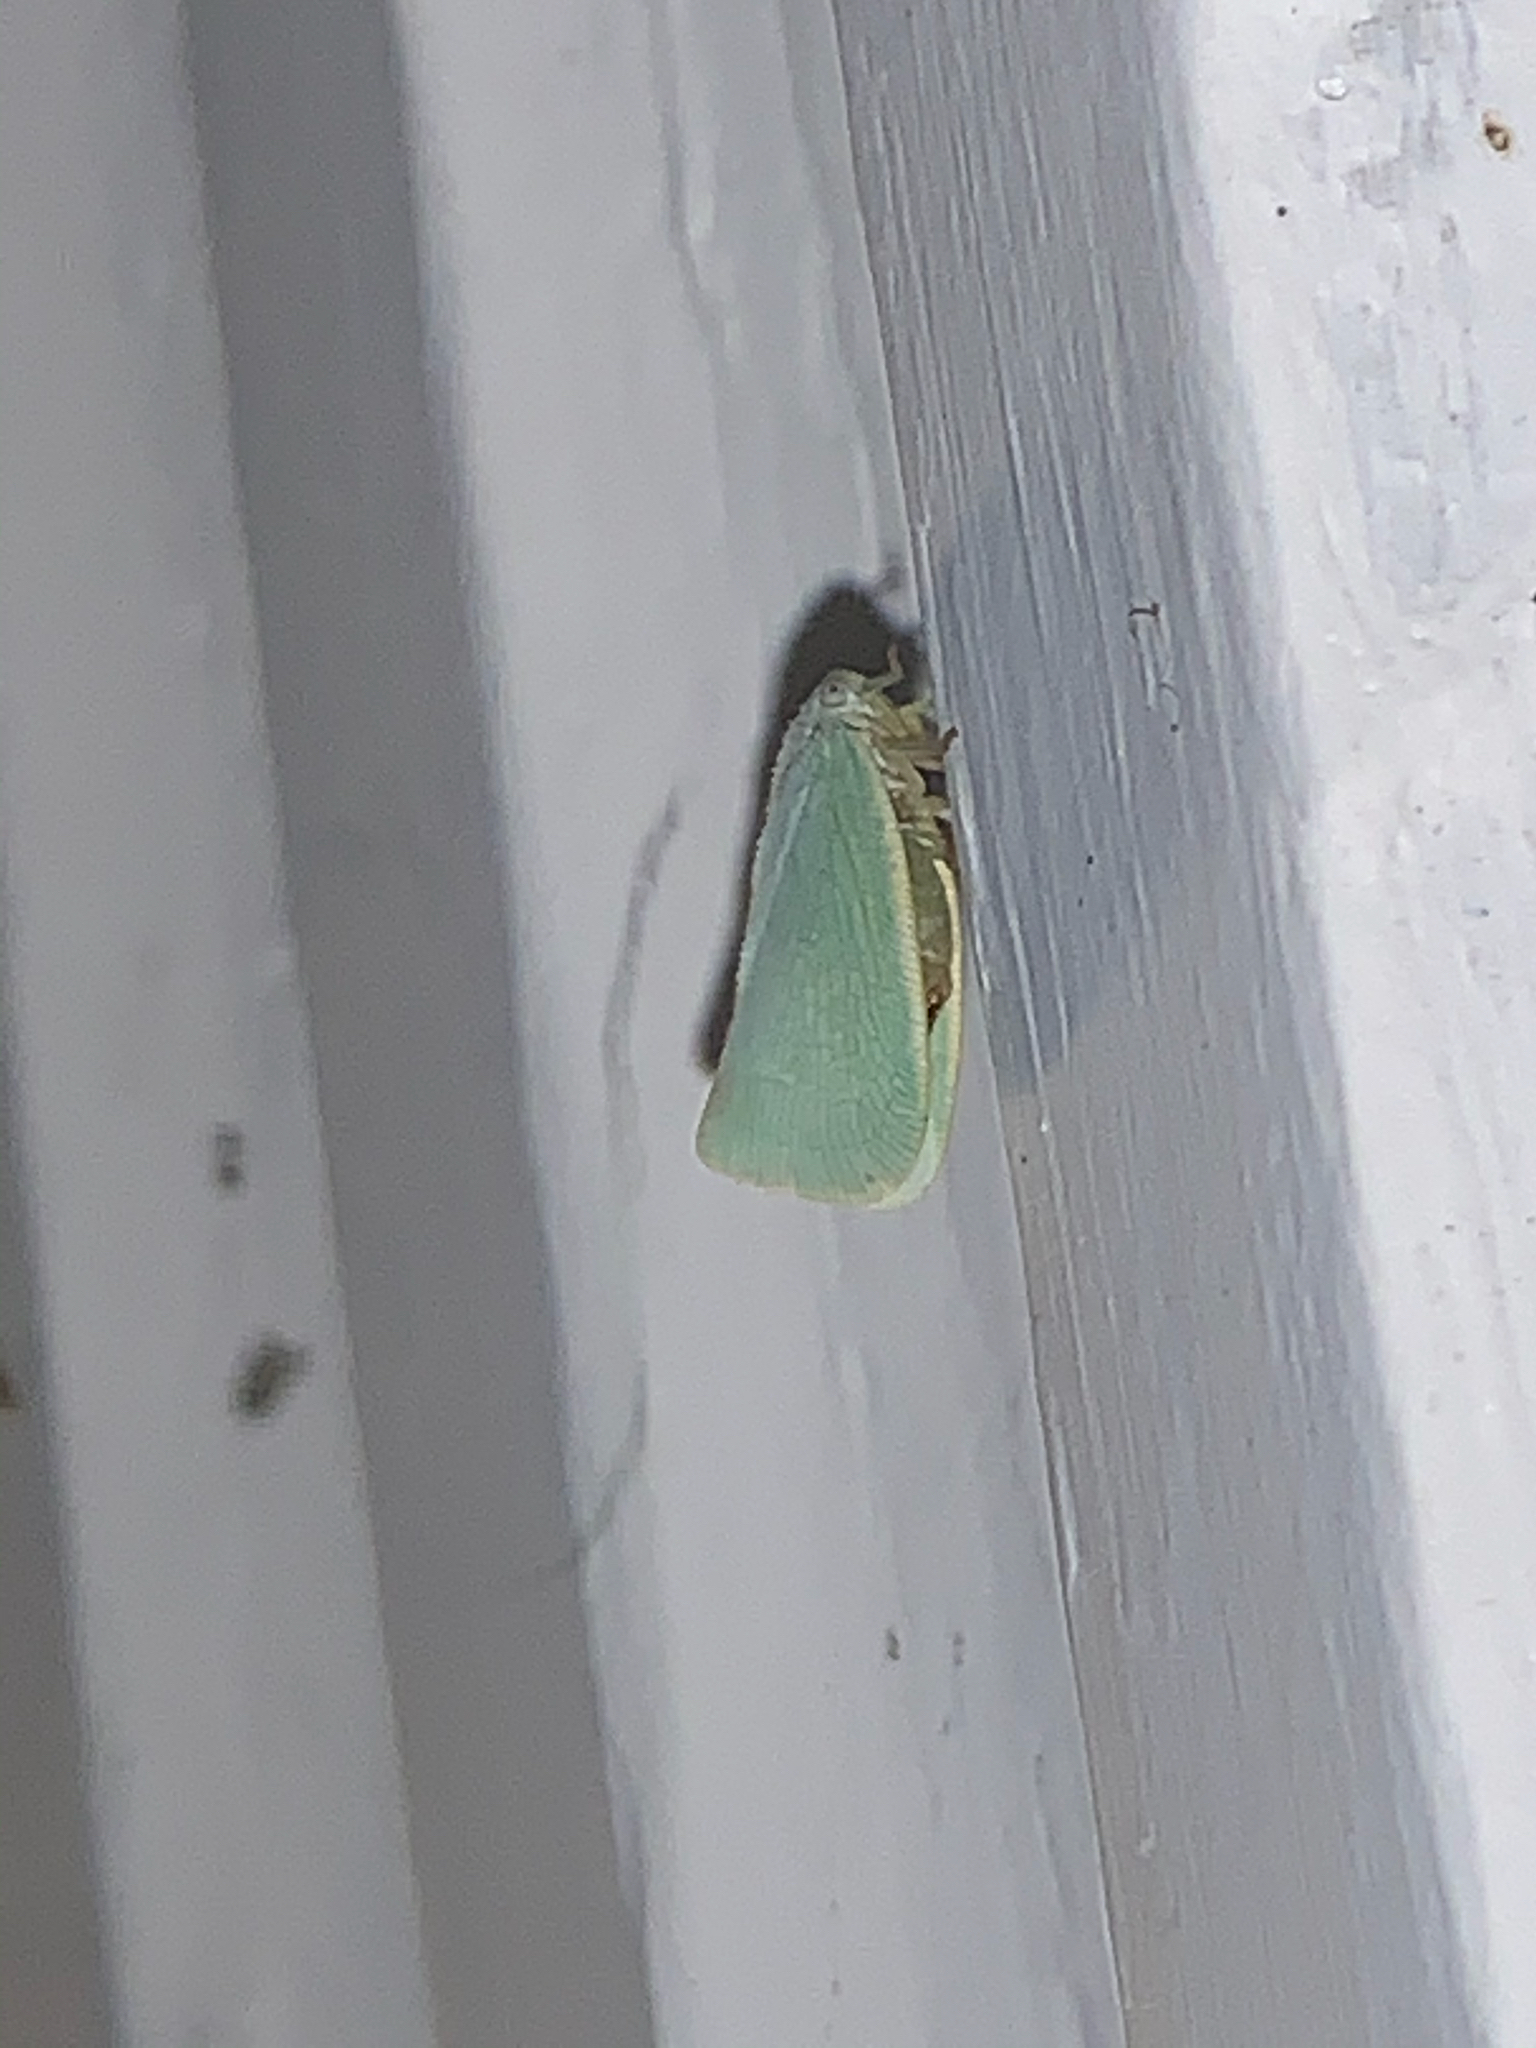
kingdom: Animalia
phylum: Arthropoda
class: Insecta
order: Hemiptera
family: Flatidae
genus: Flatormenis
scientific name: Flatormenis proxima
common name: Northern flatid planthopper
